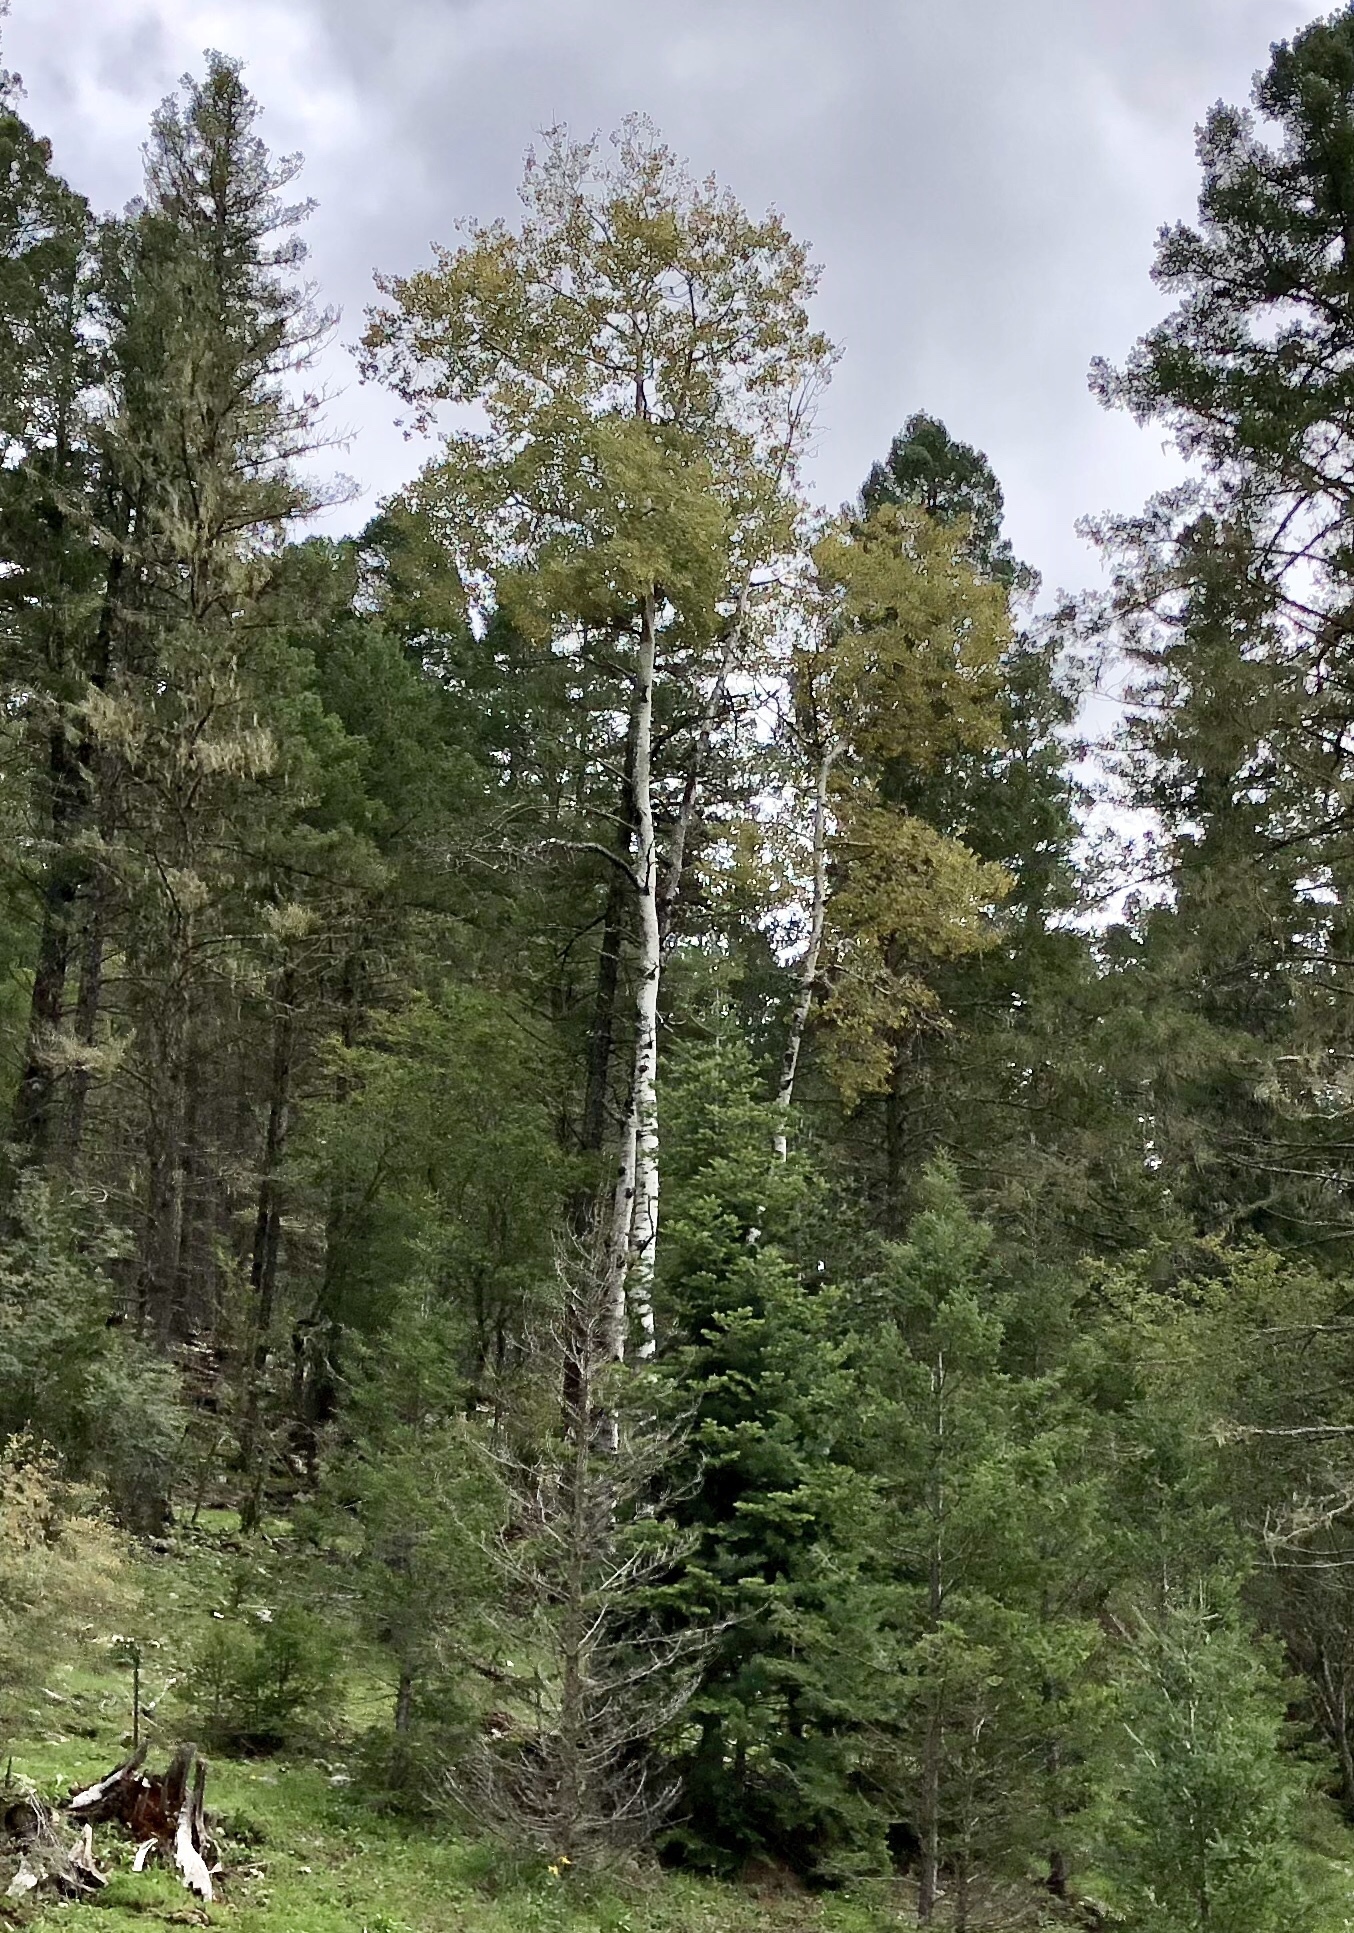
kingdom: Plantae
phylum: Tracheophyta
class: Magnoliopsida
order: Malpighiales
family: Salicaceae
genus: Populus
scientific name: Populus tremuloides
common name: Quaking aspen
